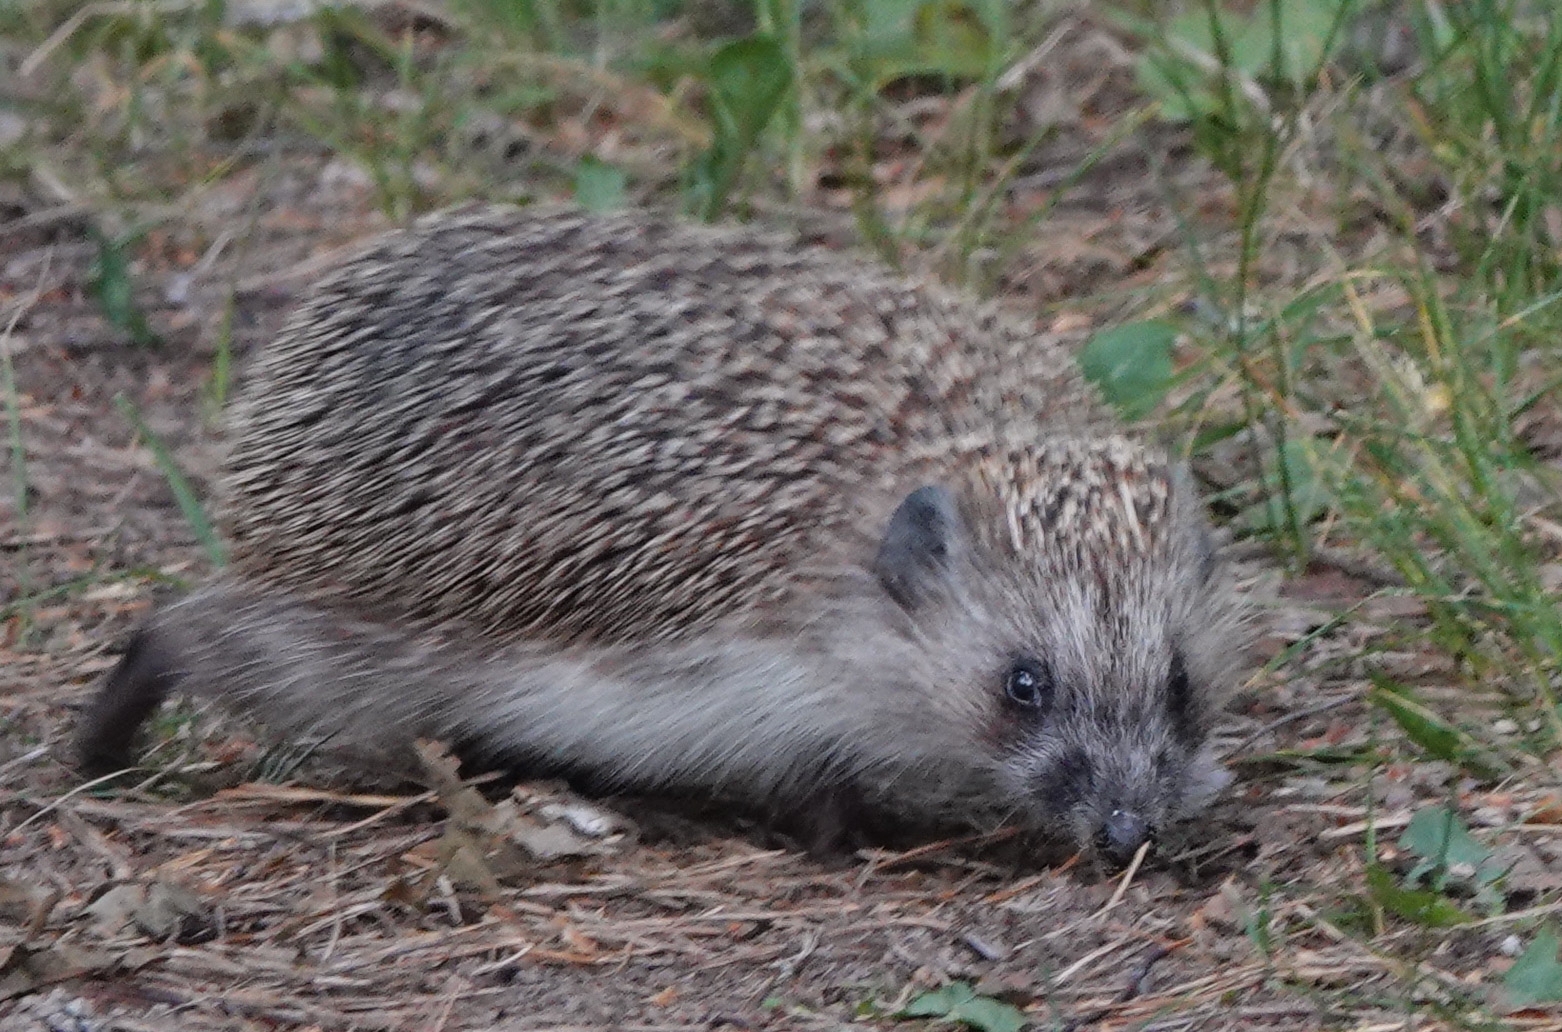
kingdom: Animalia
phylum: Chordata
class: Mammalia
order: Erinaceomorpha
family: Erinaceidae
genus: Erinaceus
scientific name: Erinaceus europaeus
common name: West european hedgehog
